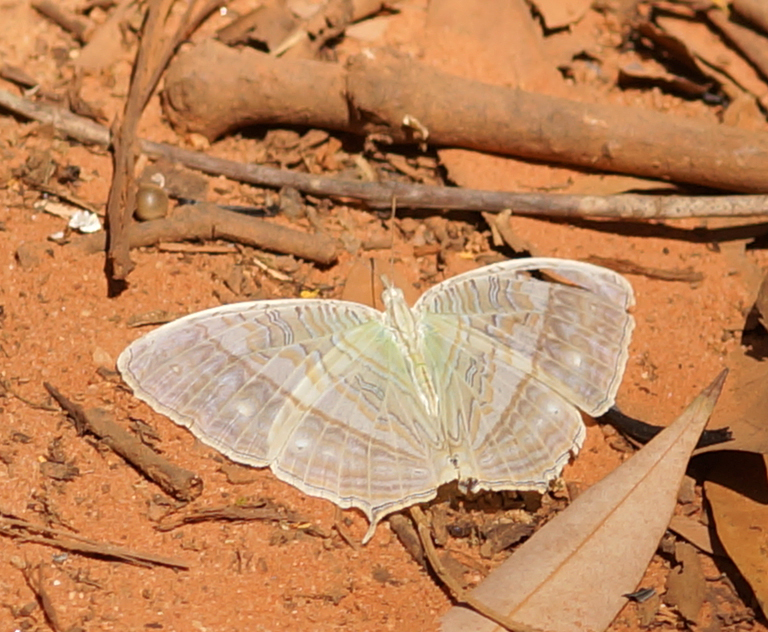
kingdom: Animalia
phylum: Arthropoda
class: Insecta
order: Lepidoptera
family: Nymphalidae
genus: Cyrestis
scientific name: Cyrestis cocles
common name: Marbled map
